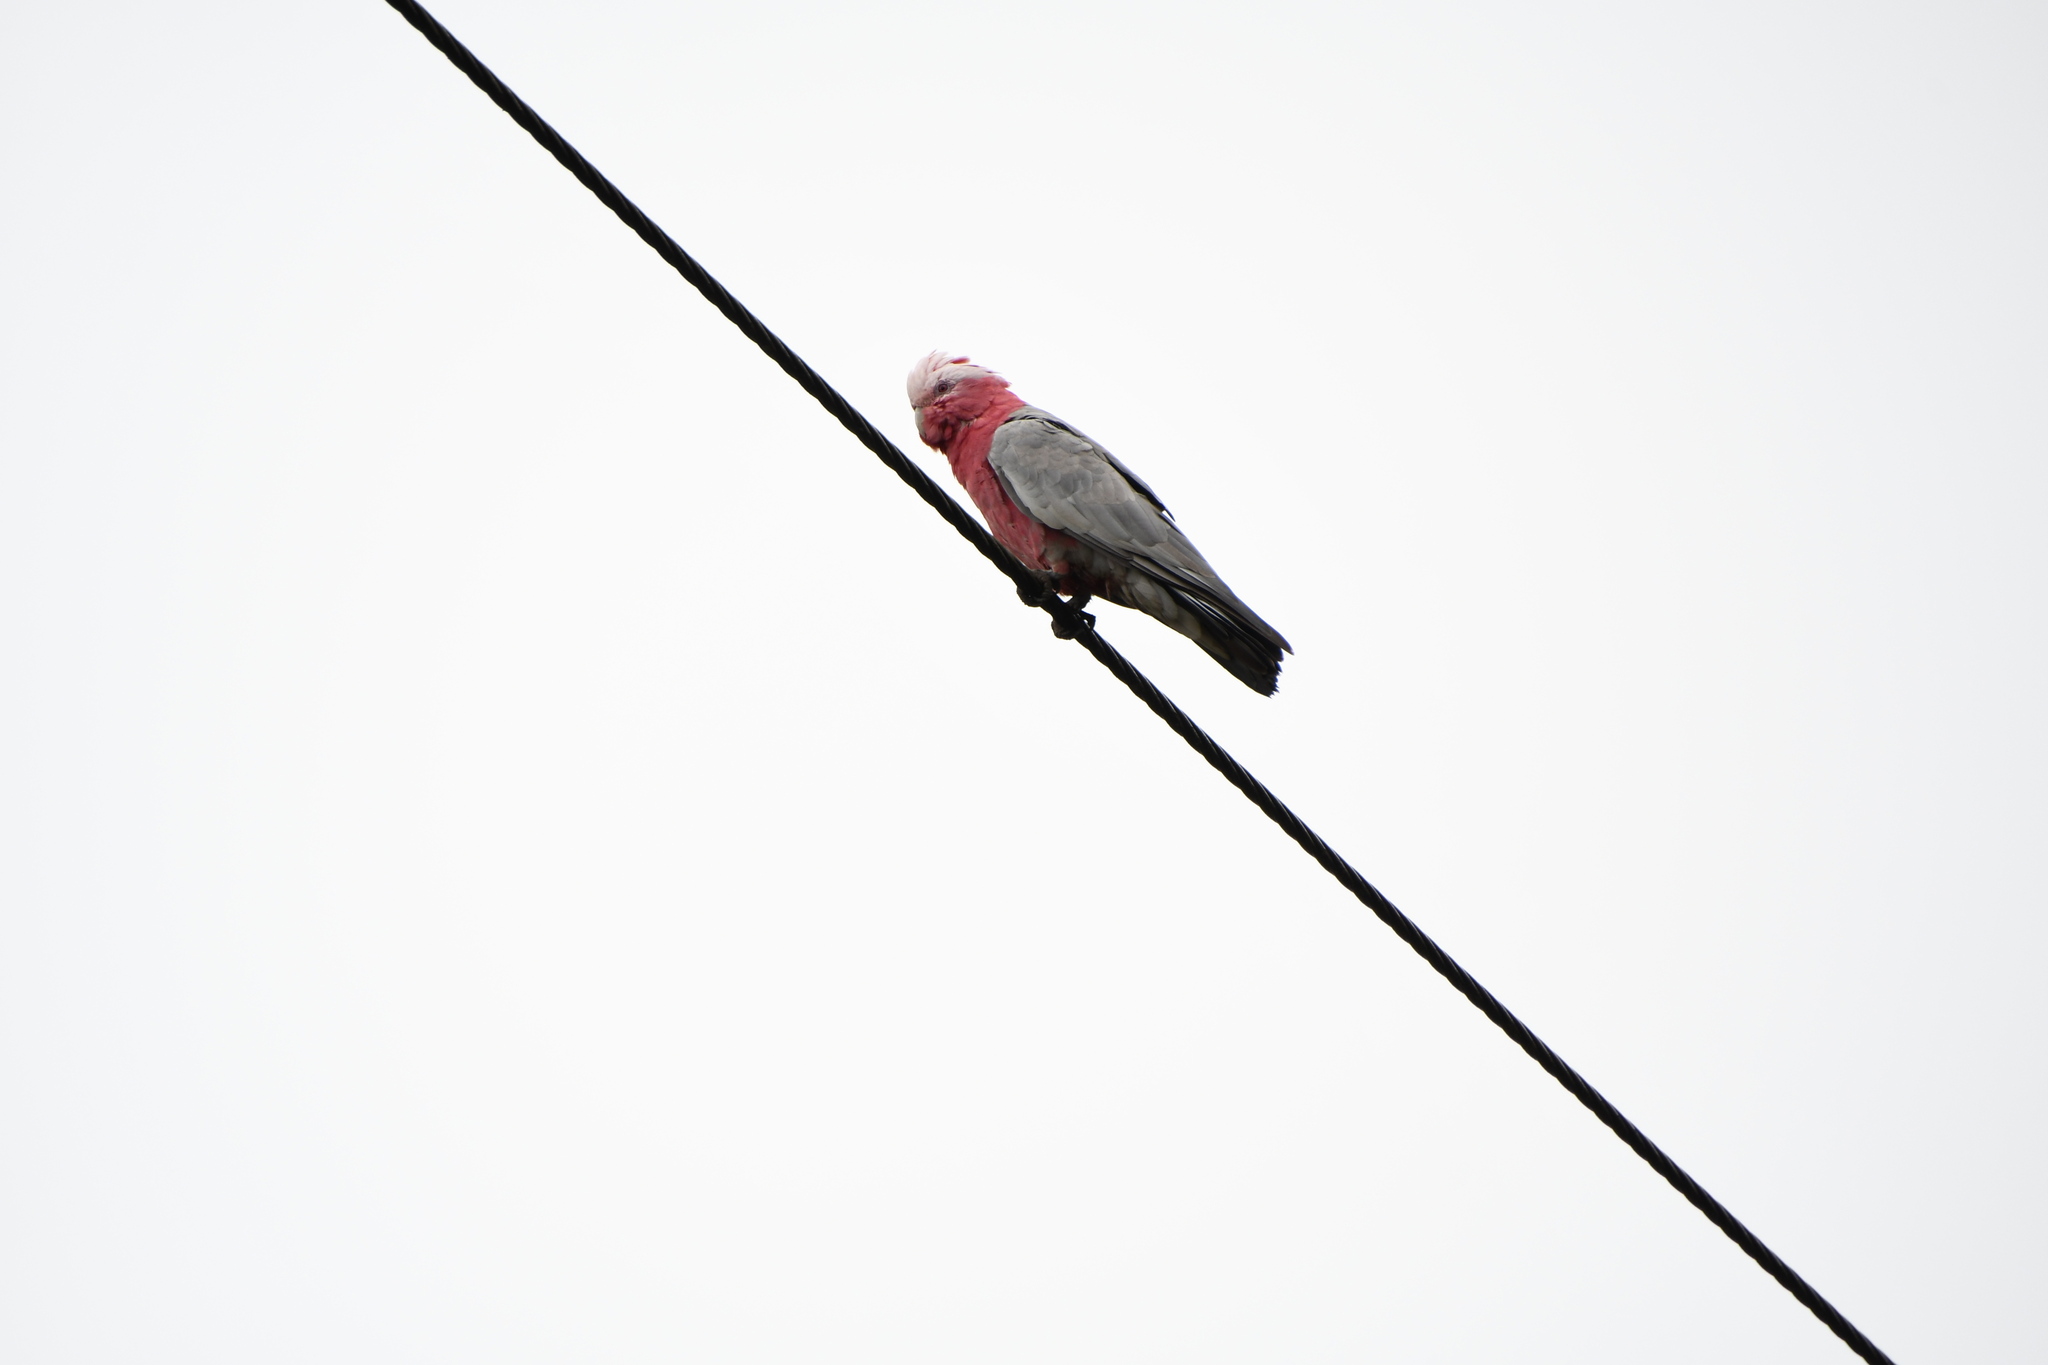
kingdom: Animalia
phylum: Chordata
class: Aves
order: Psittaciformes
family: Psittacidae
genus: Eolophus
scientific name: Eolophus roseicapilla
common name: Galah
